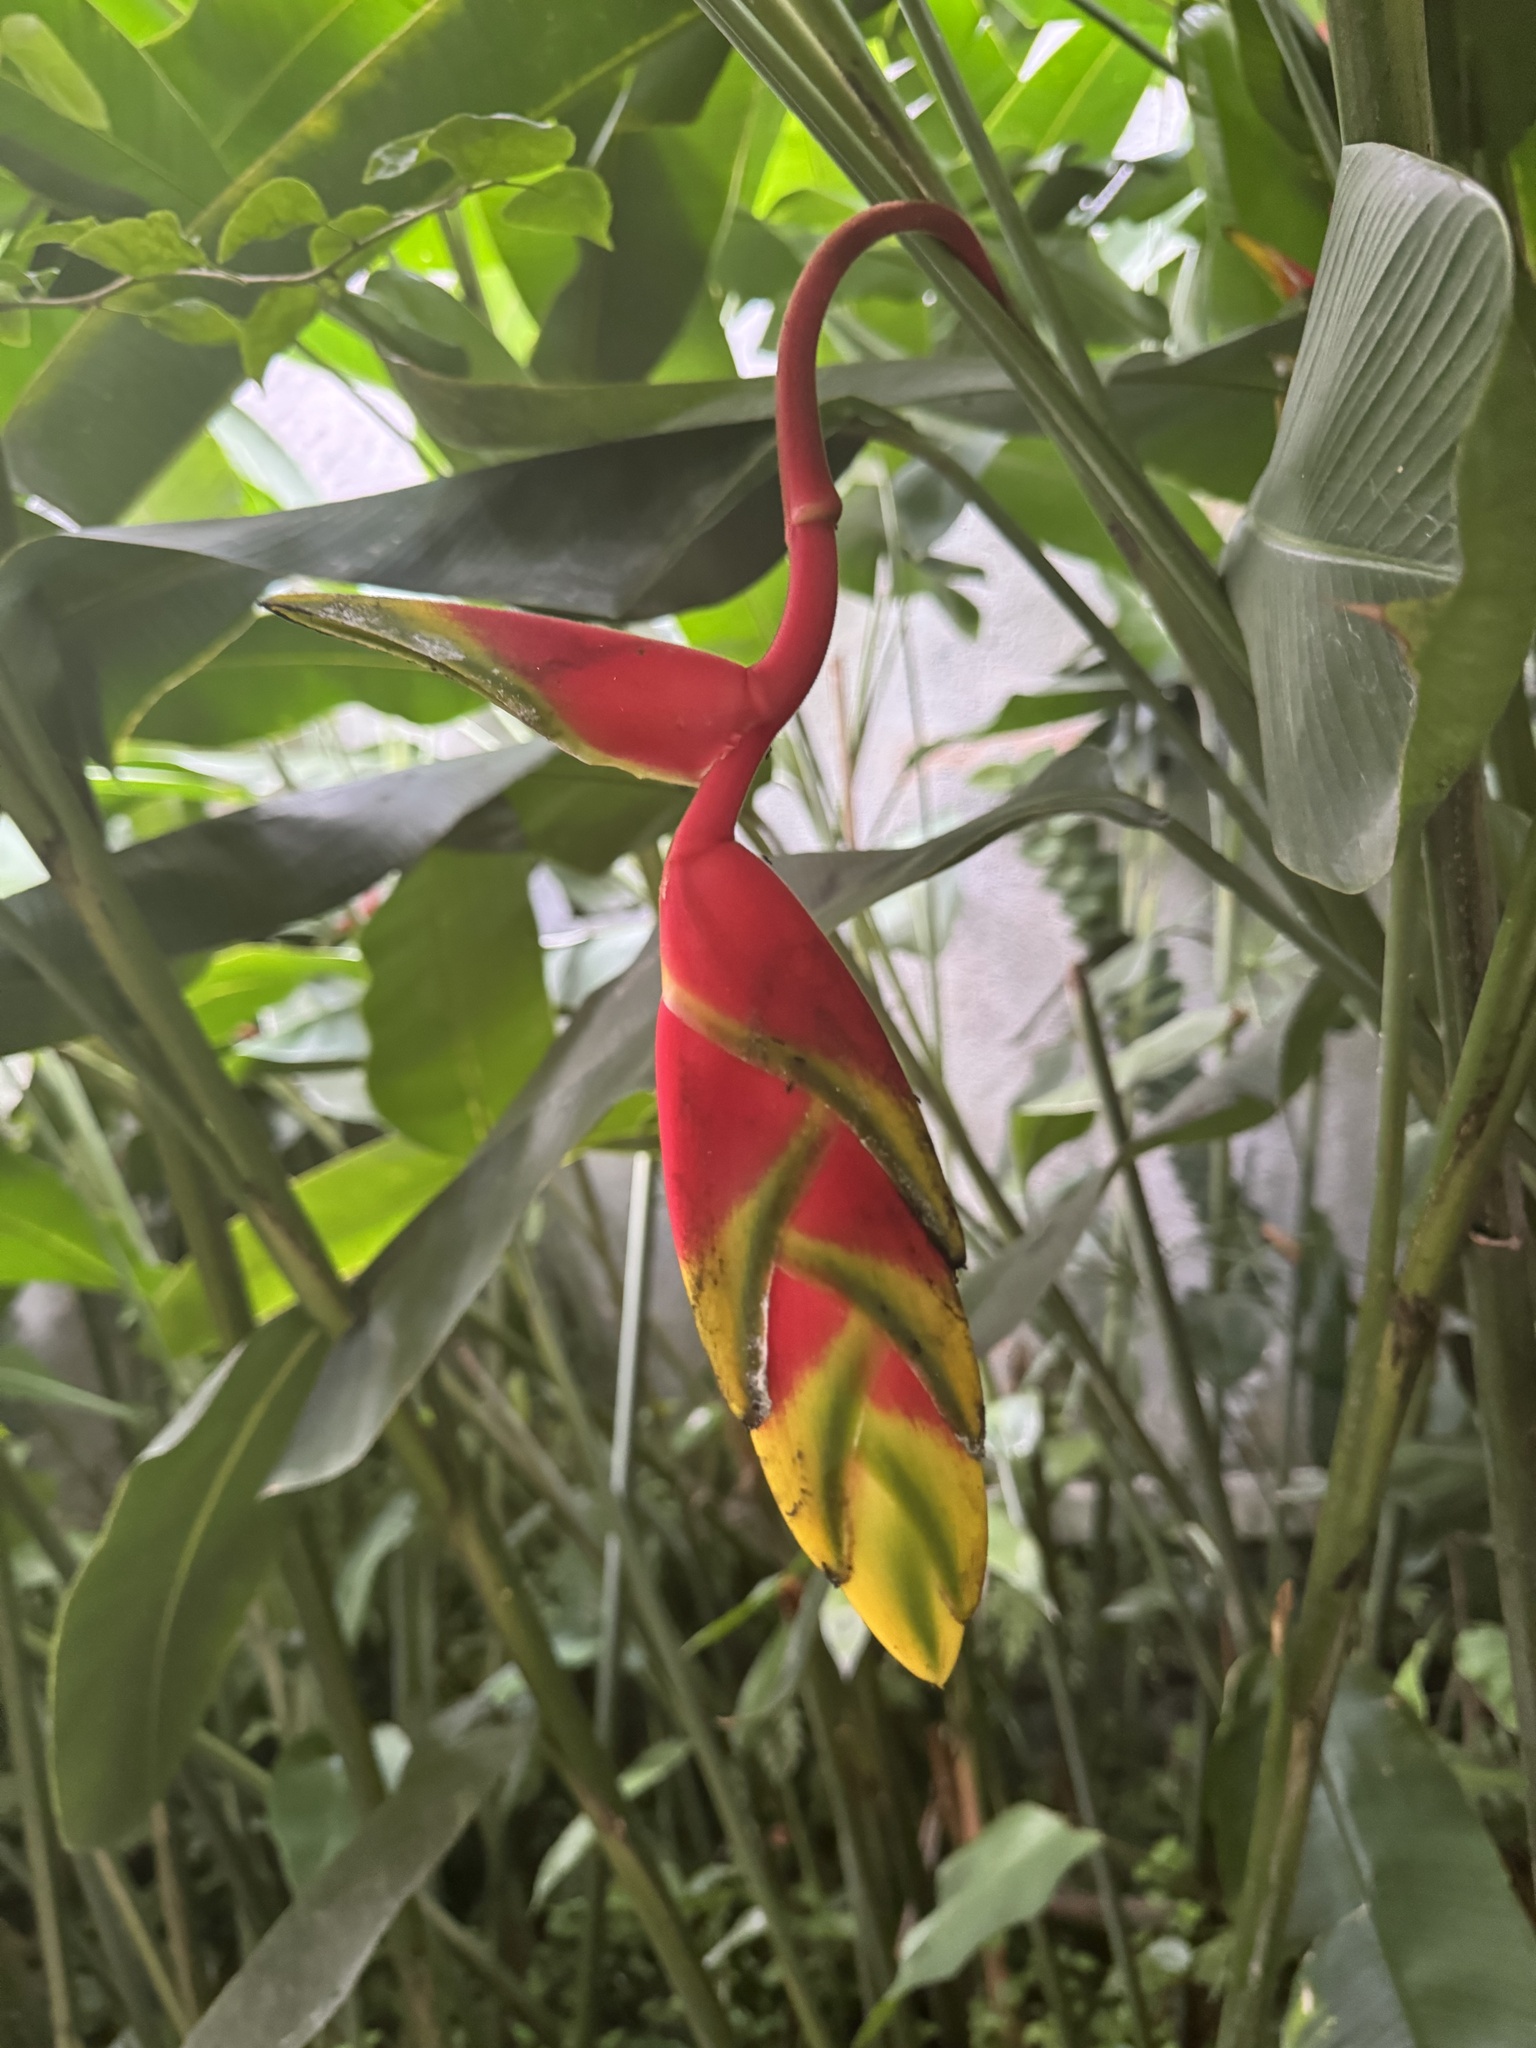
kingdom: Plantae
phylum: Tracheophyta
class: Liliopsida
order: Zingiberales
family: Heliconiaceae
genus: Heliconia
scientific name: Heliconia rostrata
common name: False bird of paradise
